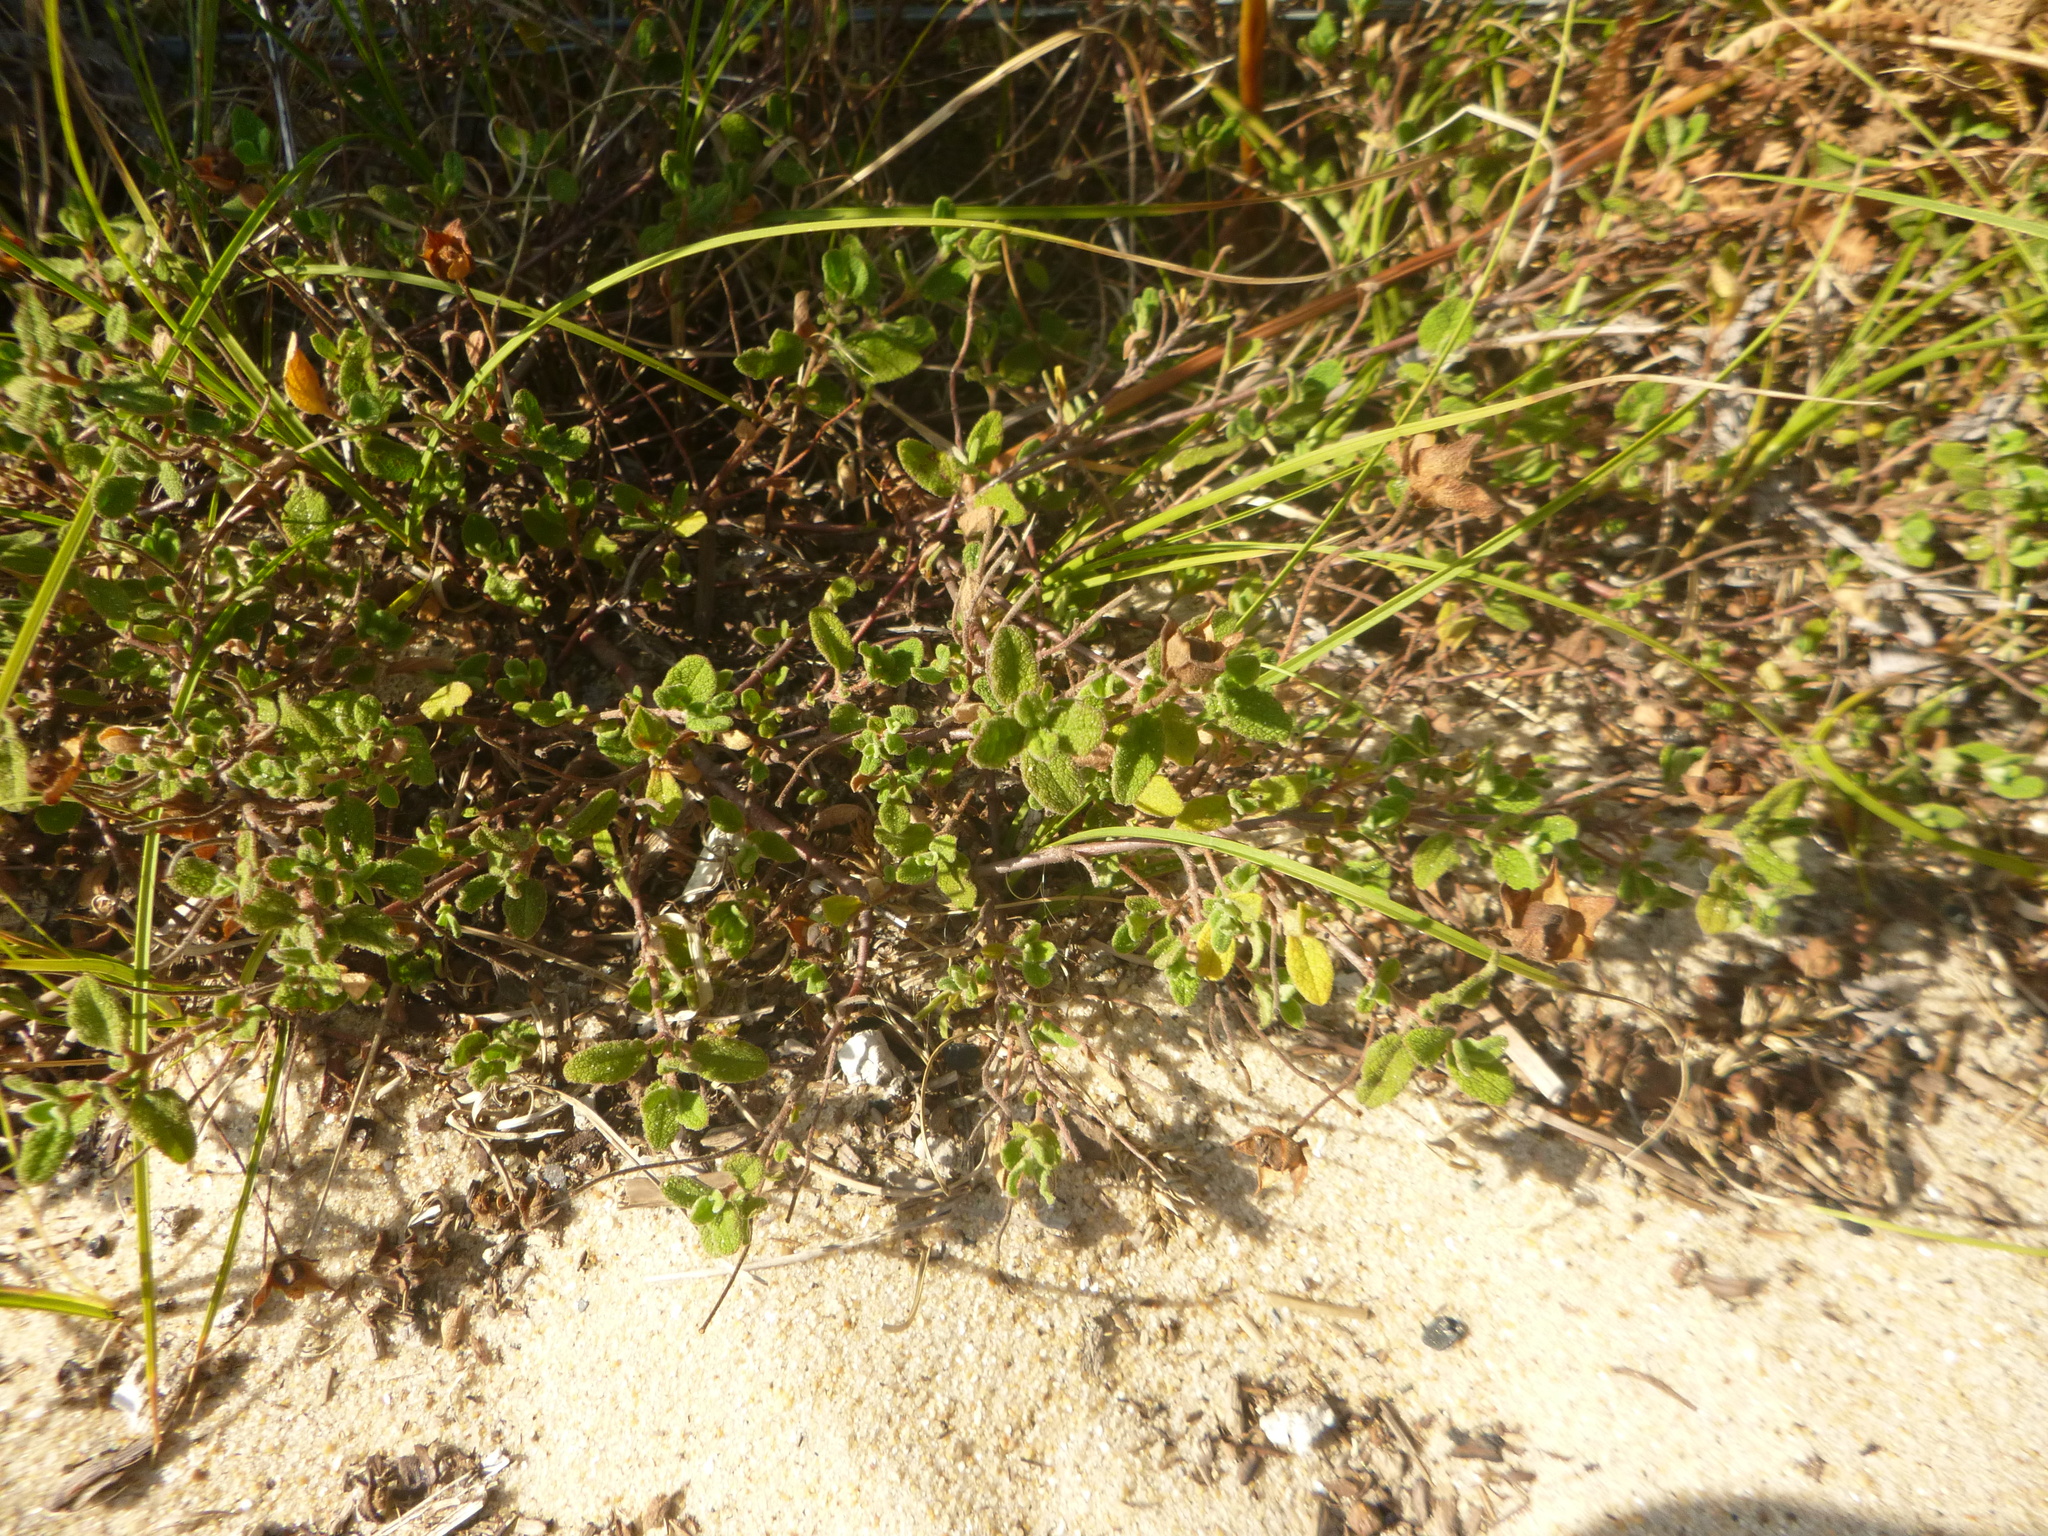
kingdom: Plantae
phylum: Tracheophyta
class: Magnoliopsida
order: Malvales
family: Cistaceae
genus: Cistus
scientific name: Cistus salviifolius
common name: Salvia cistus
